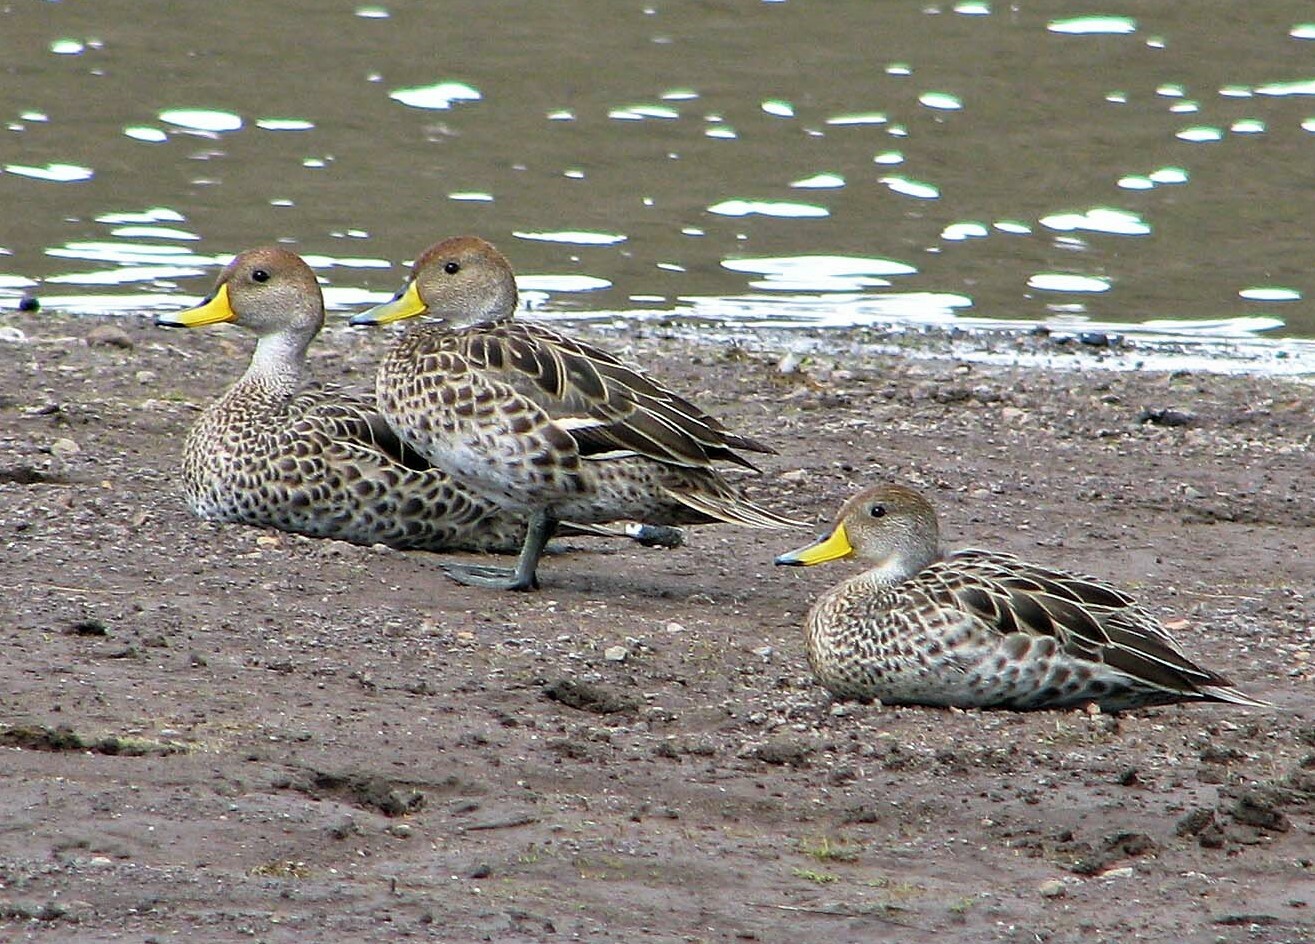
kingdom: Animalia
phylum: Chordata
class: Aves
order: Anseriformes
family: Anatidae
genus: Anas
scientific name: Anas georgica
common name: Yellow-billed pintail
